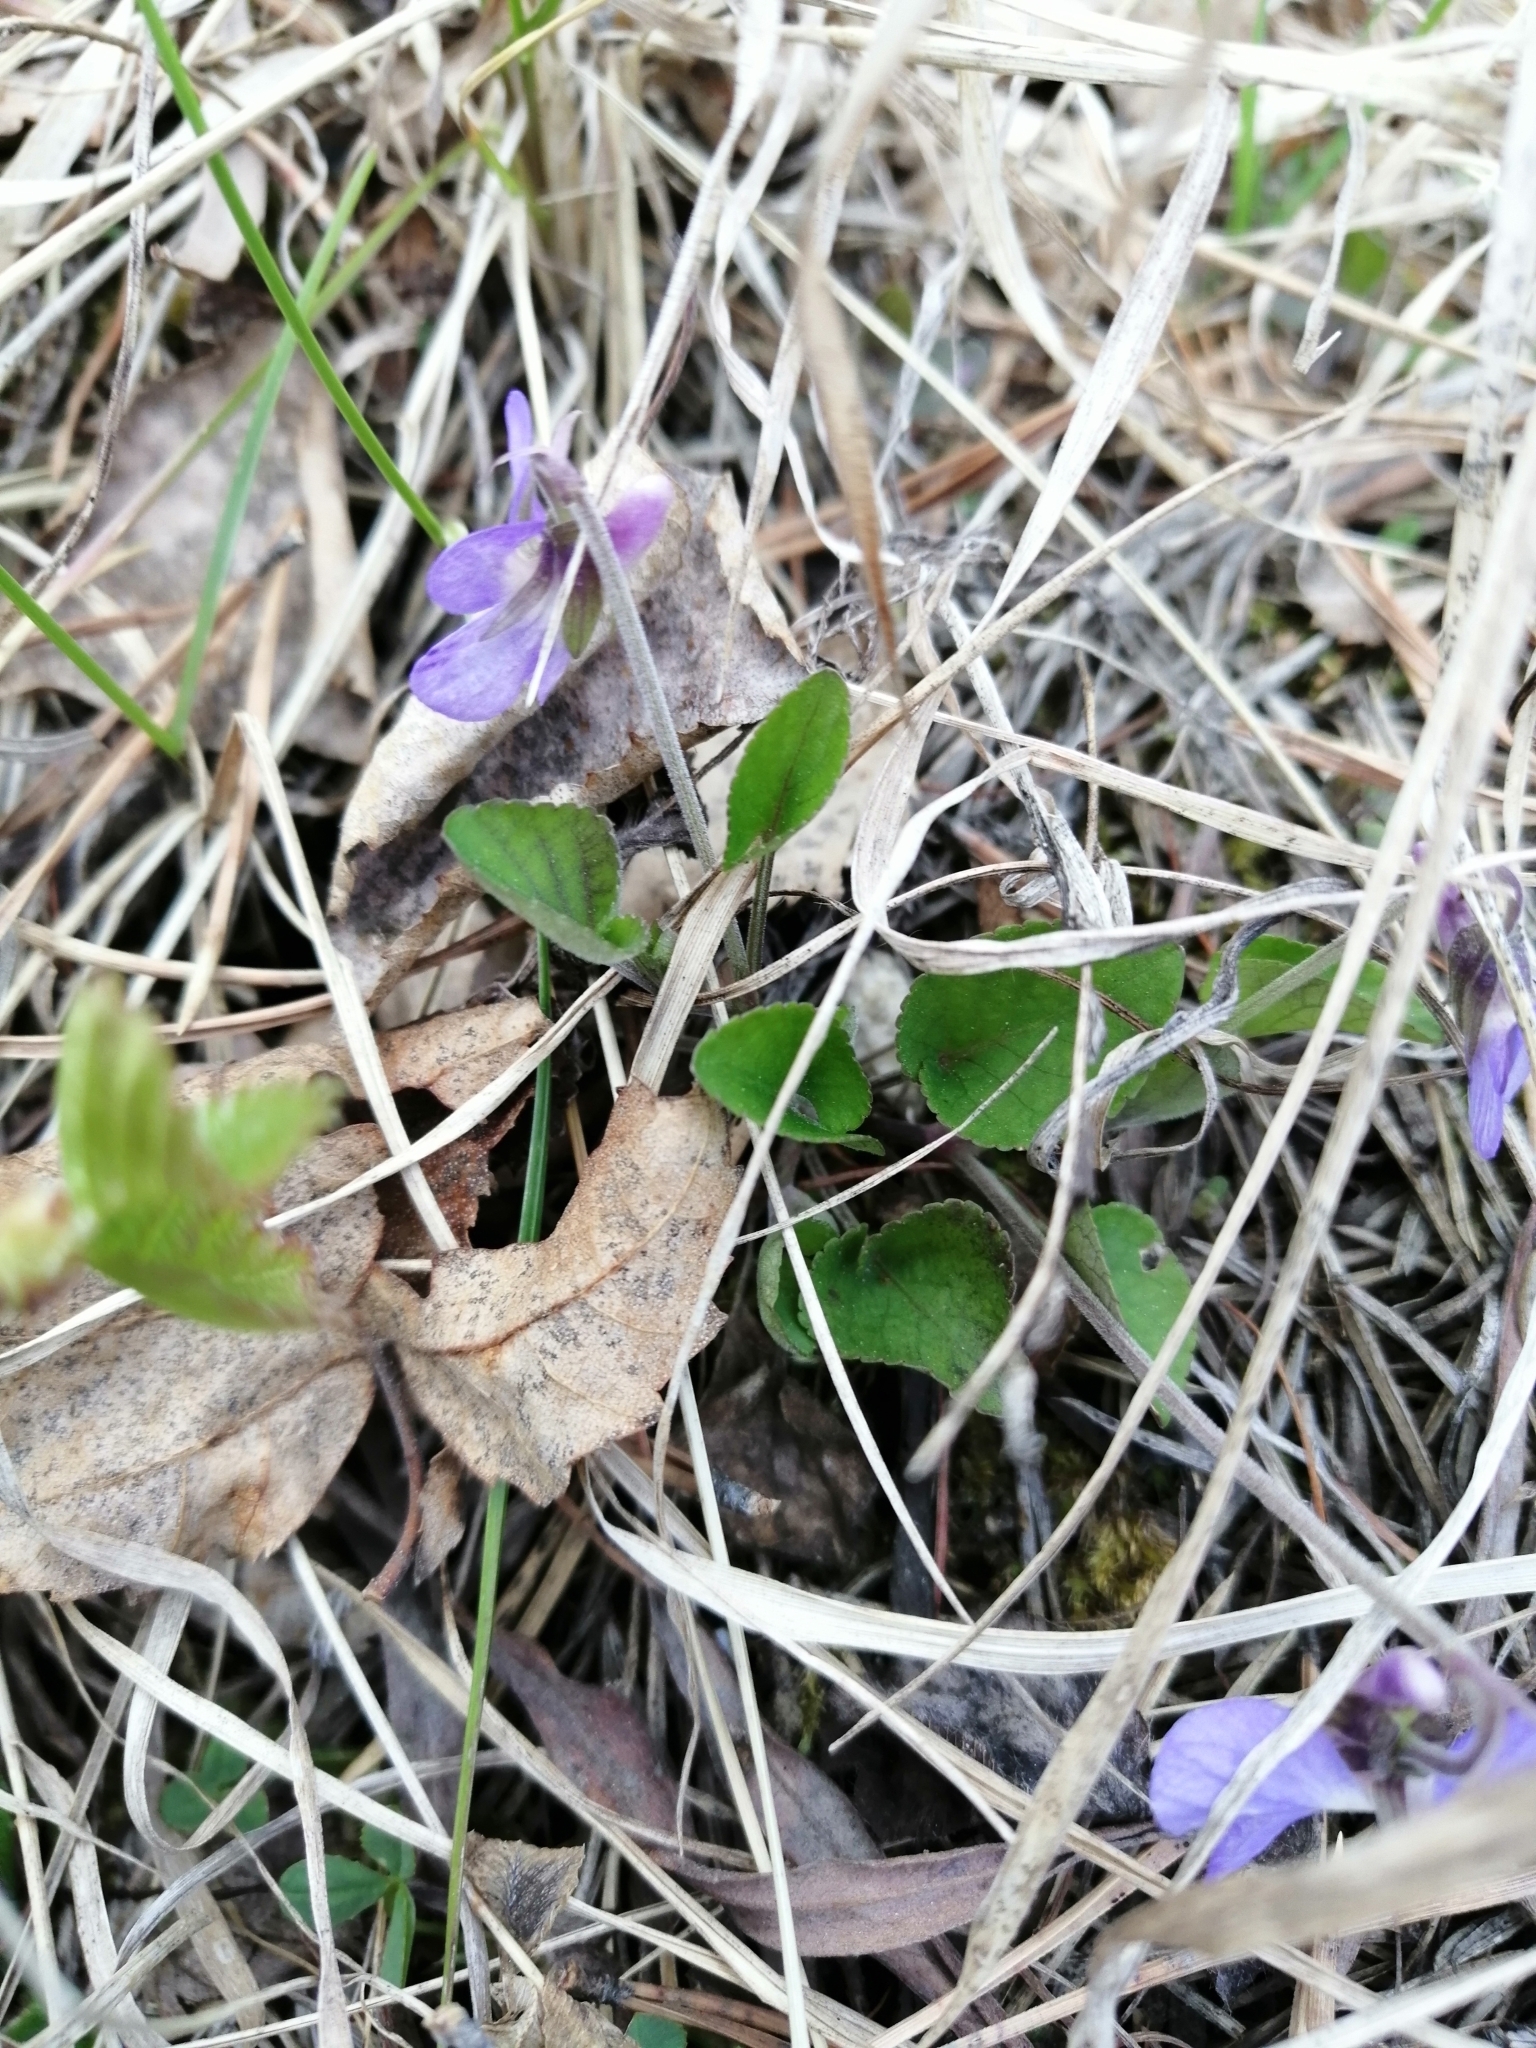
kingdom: Plantae
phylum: Tracheophyta
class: Magnoliopsida
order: Malpighiales
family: Violaceae
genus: Viola
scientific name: Viola rupestris
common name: Teesdale violet
